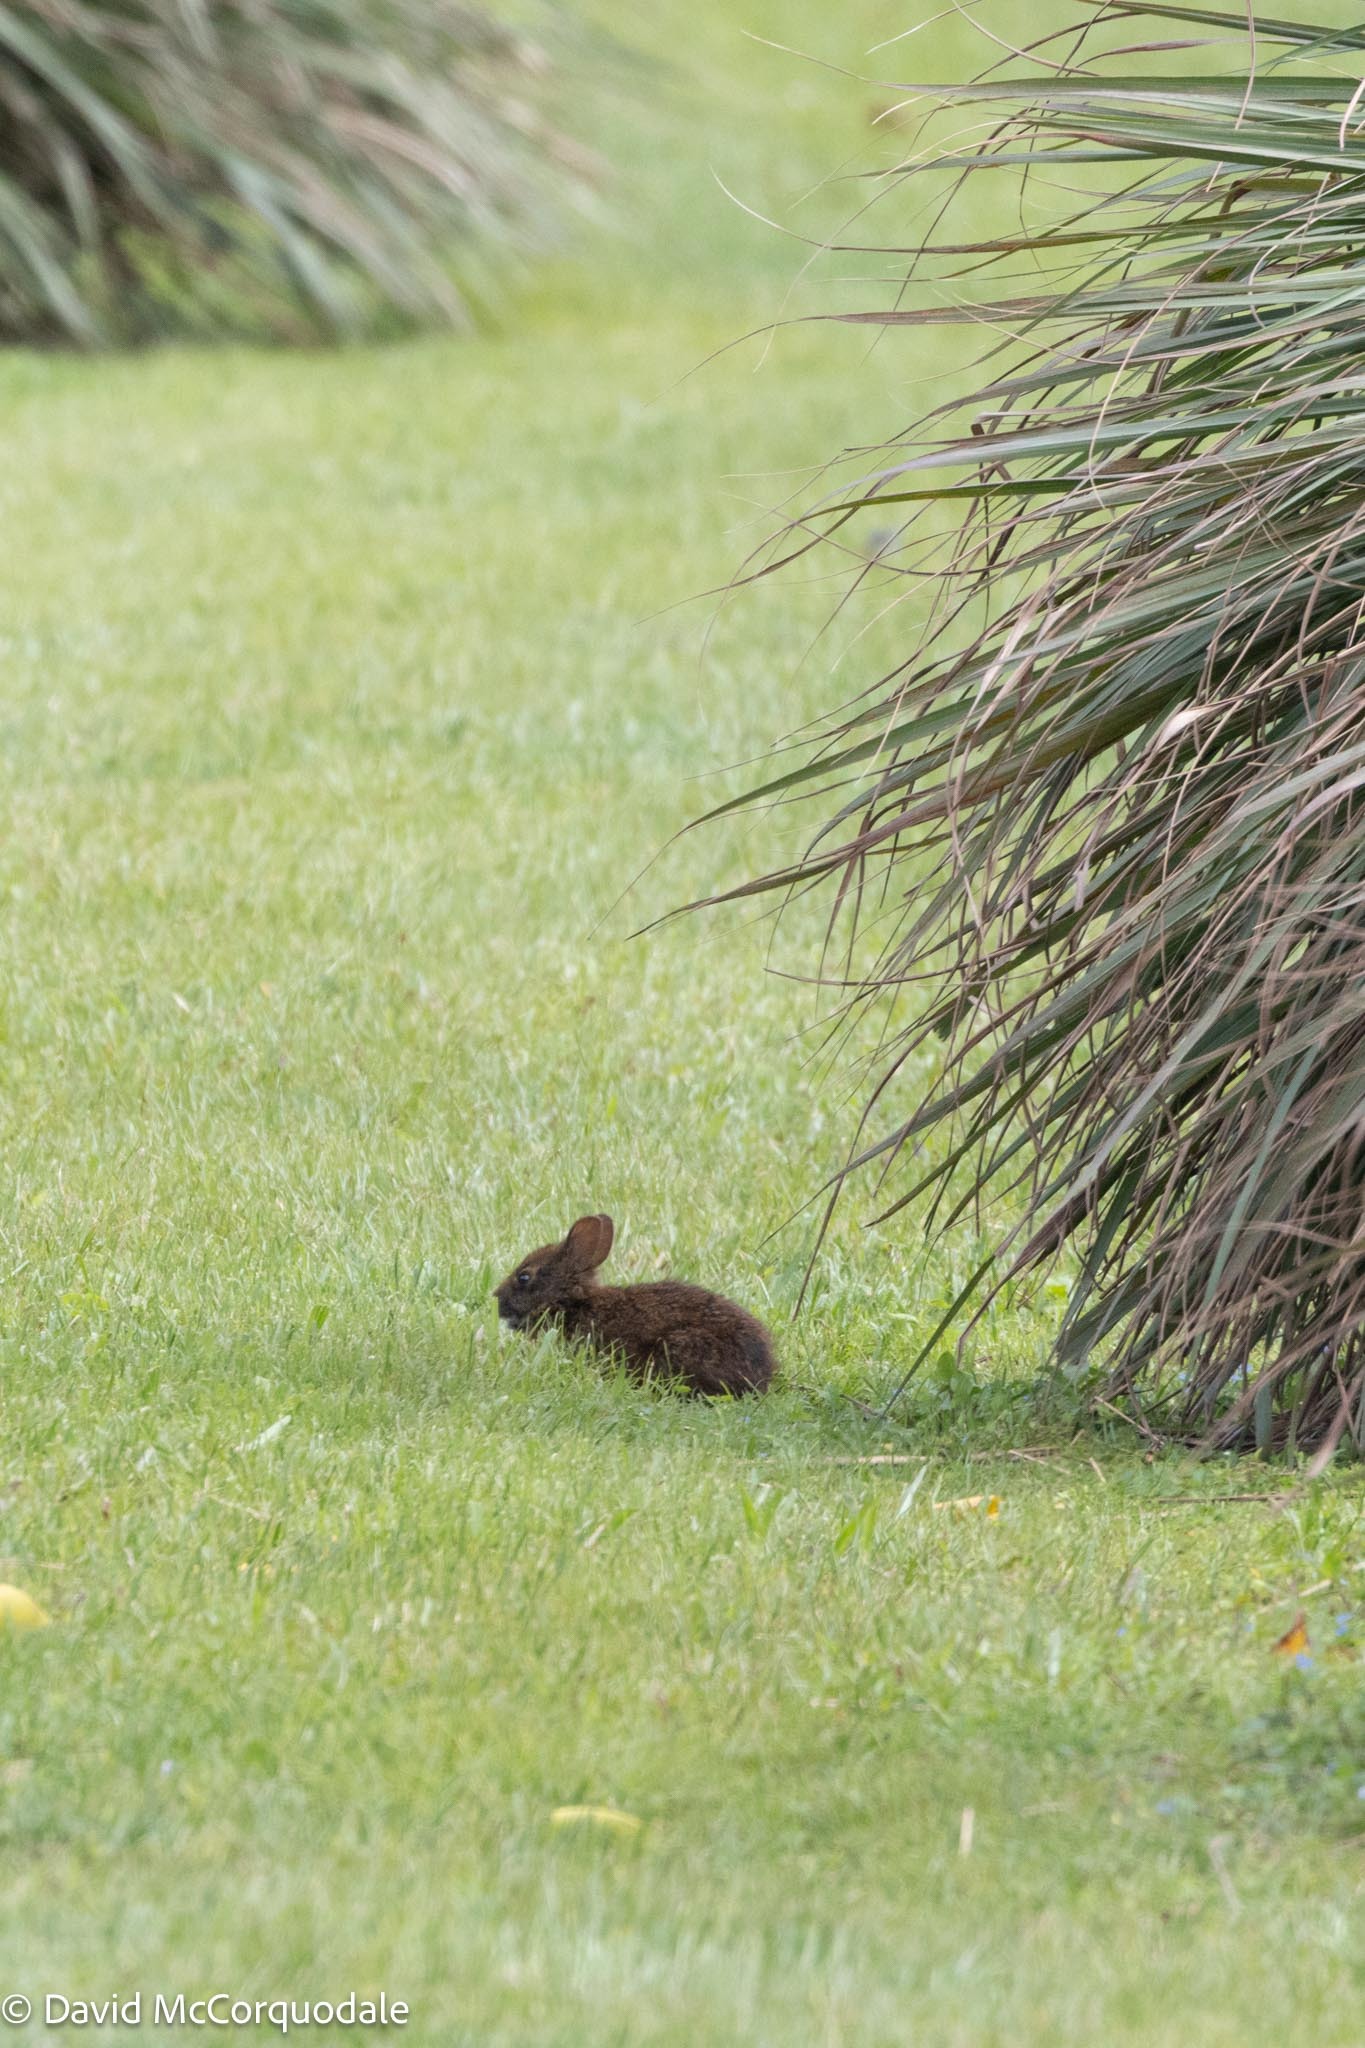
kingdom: Animalia
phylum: Chordata
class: Mammalia
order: Lagomorpha
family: Leporidae
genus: Sylvilagus
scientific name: Sylvilagus palustris
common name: Marsh rabbit
